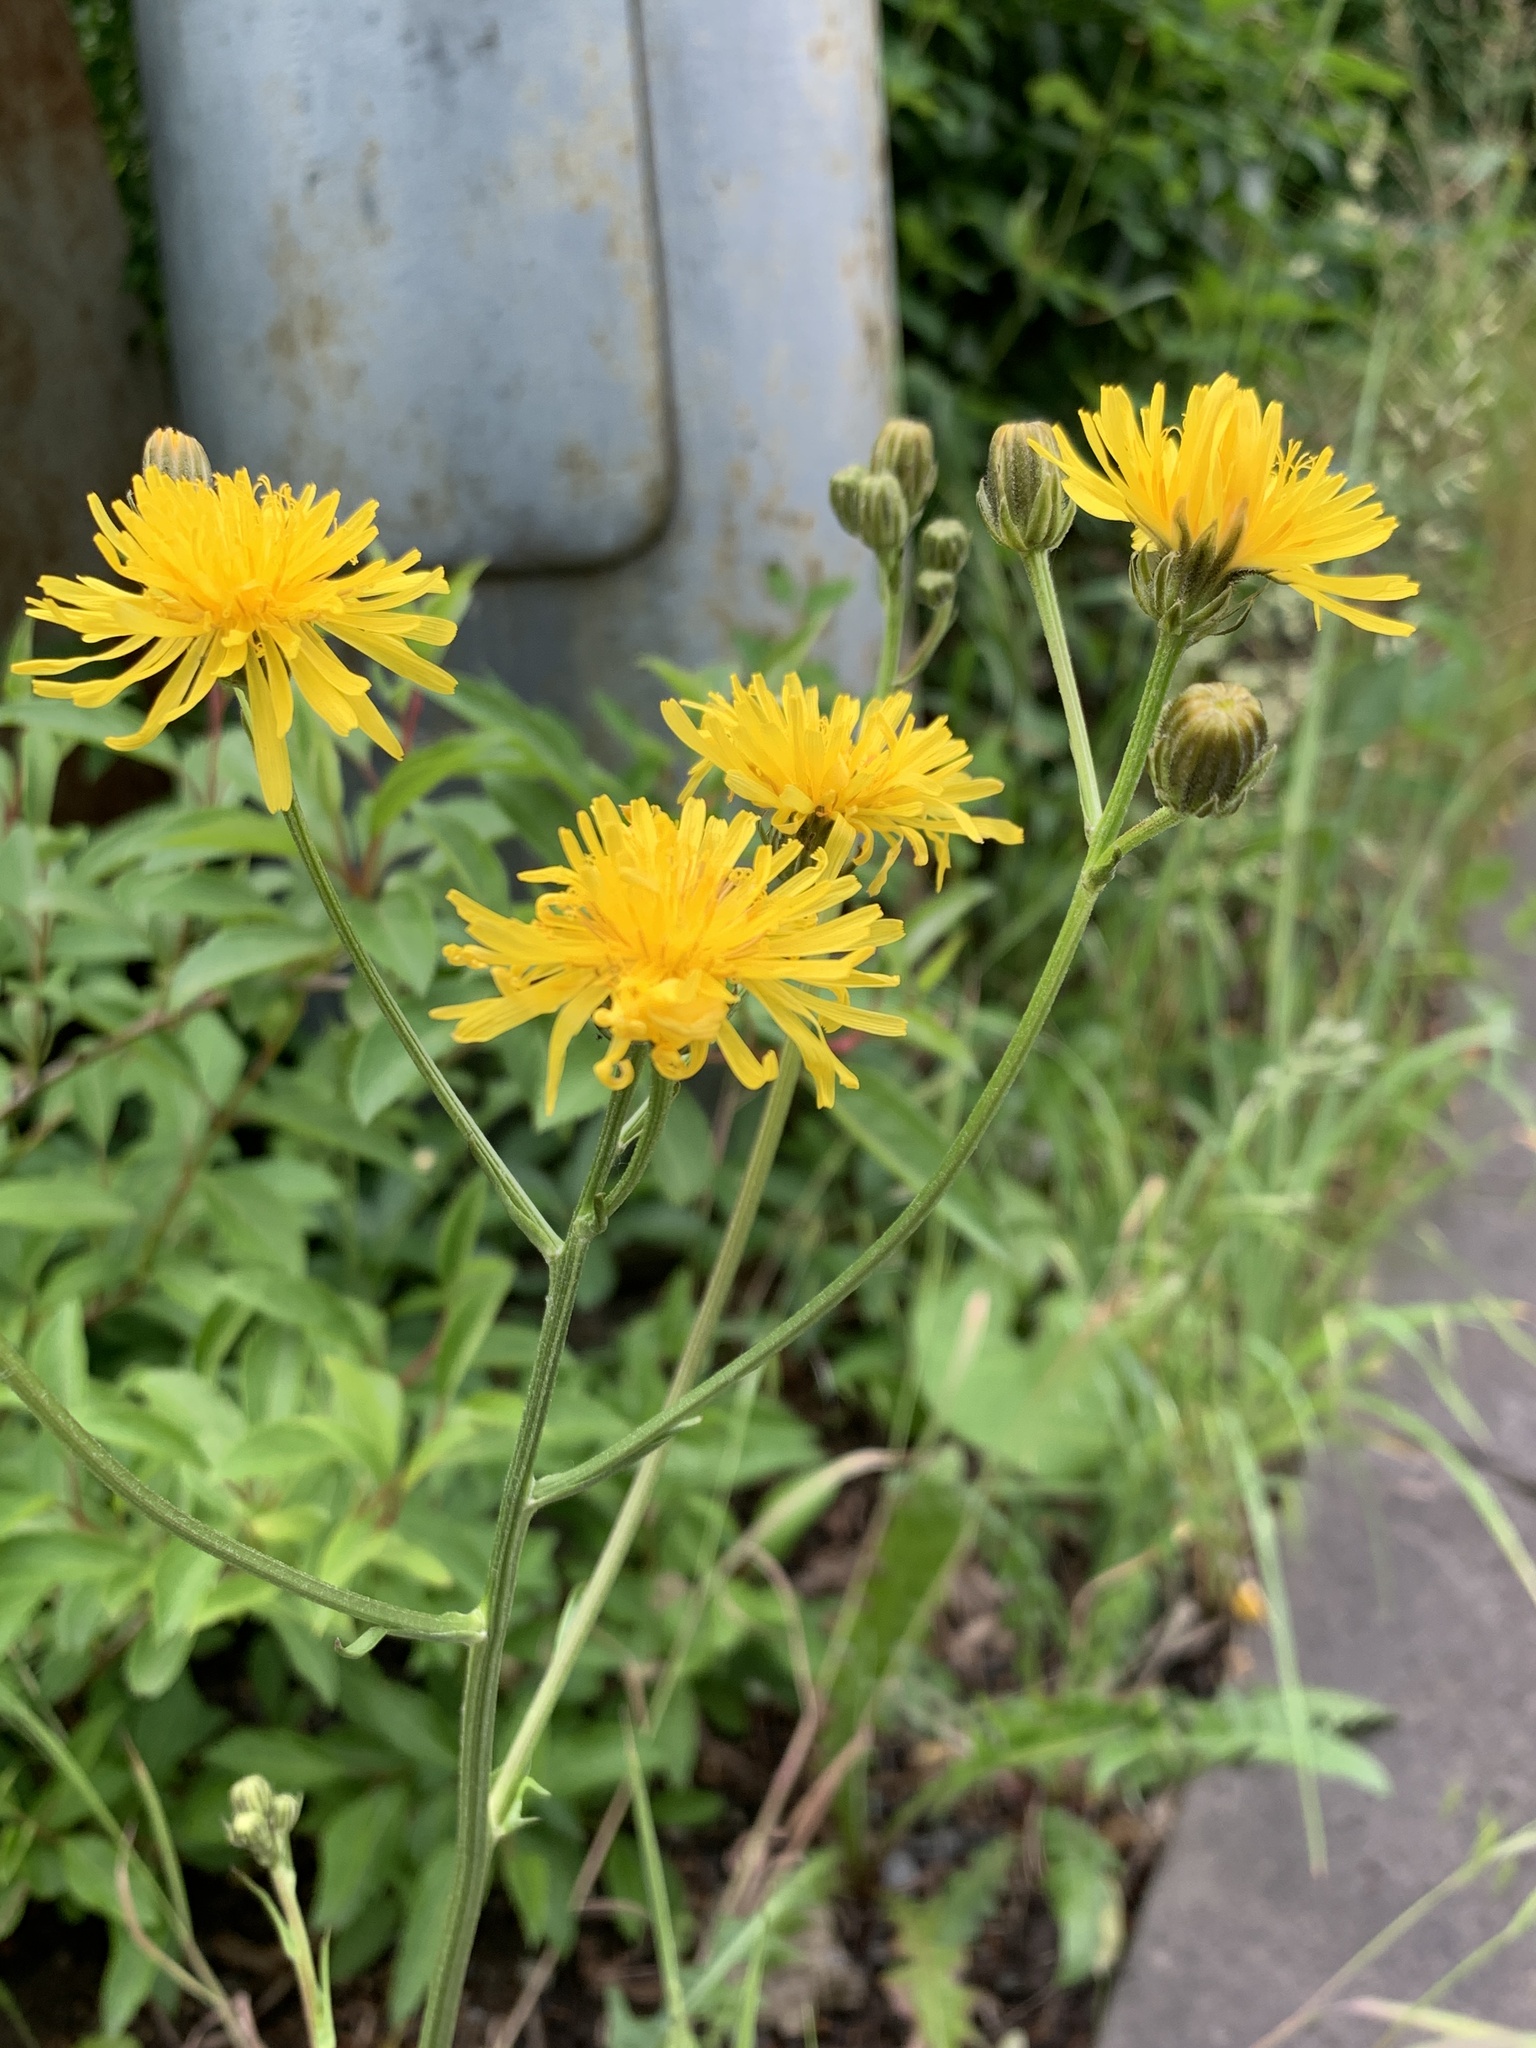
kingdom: Plantae
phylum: Tracheophyta
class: Magnoliopsida
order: Asterales
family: Asteraceae
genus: Crepis
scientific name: Crepis biennis
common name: Rough hawk's-beard
